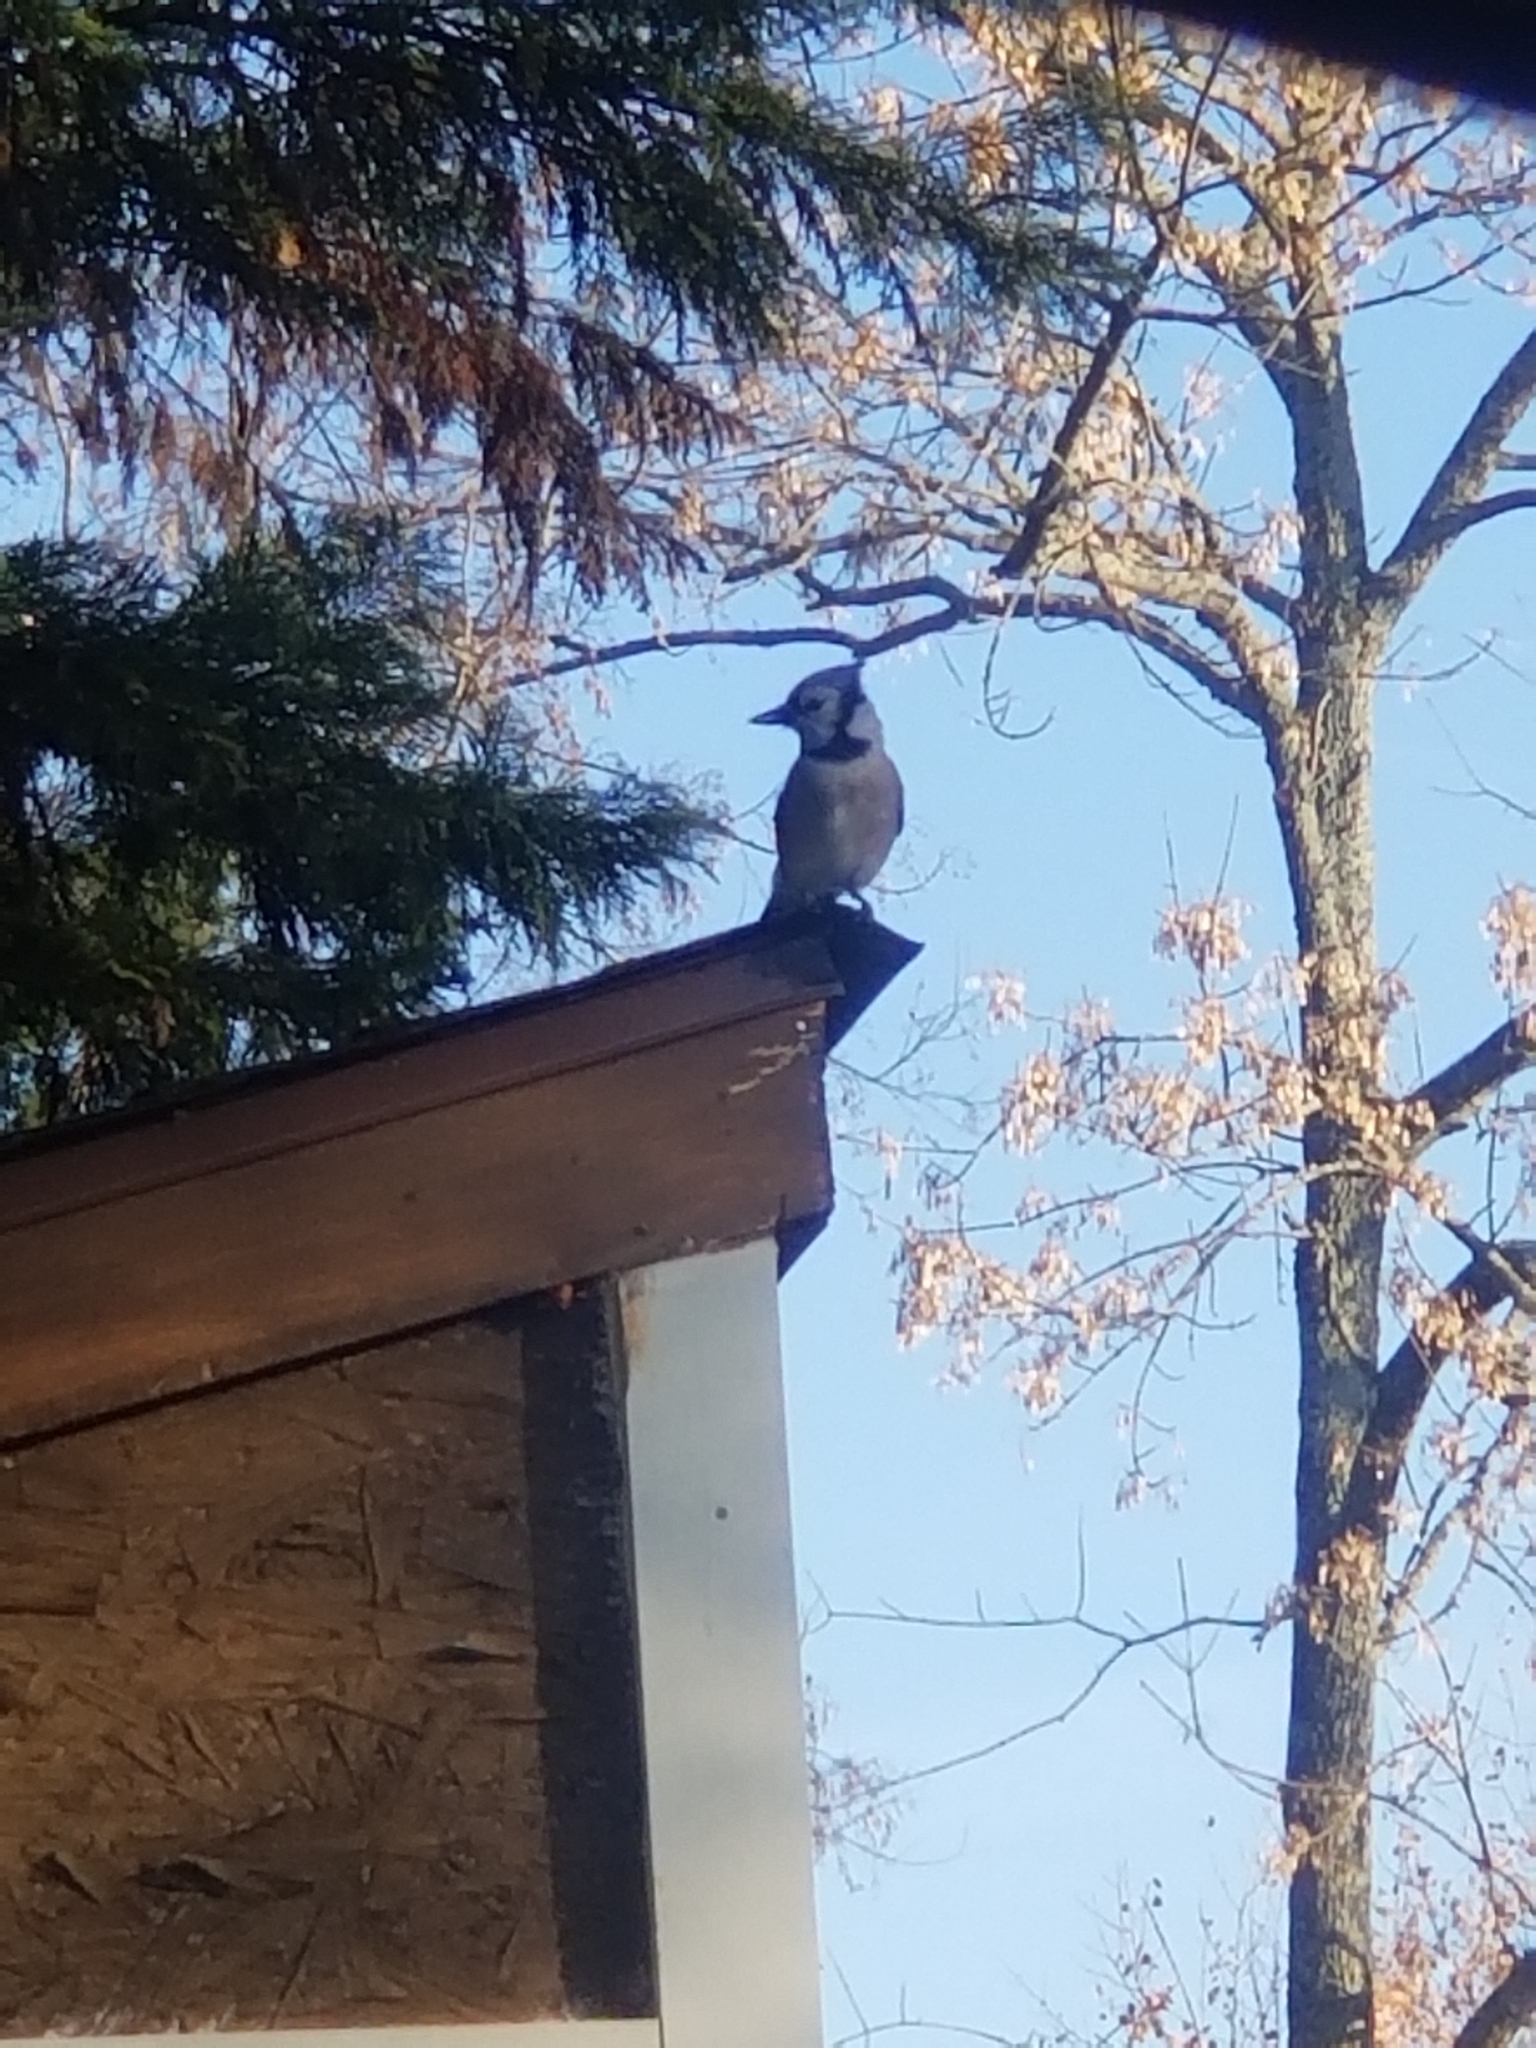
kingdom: Animalia
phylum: Chordata
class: Aves
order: Passeriformes
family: Corvidae
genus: Cyanocitta
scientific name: Cyanocitta cristata
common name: Blue jay
